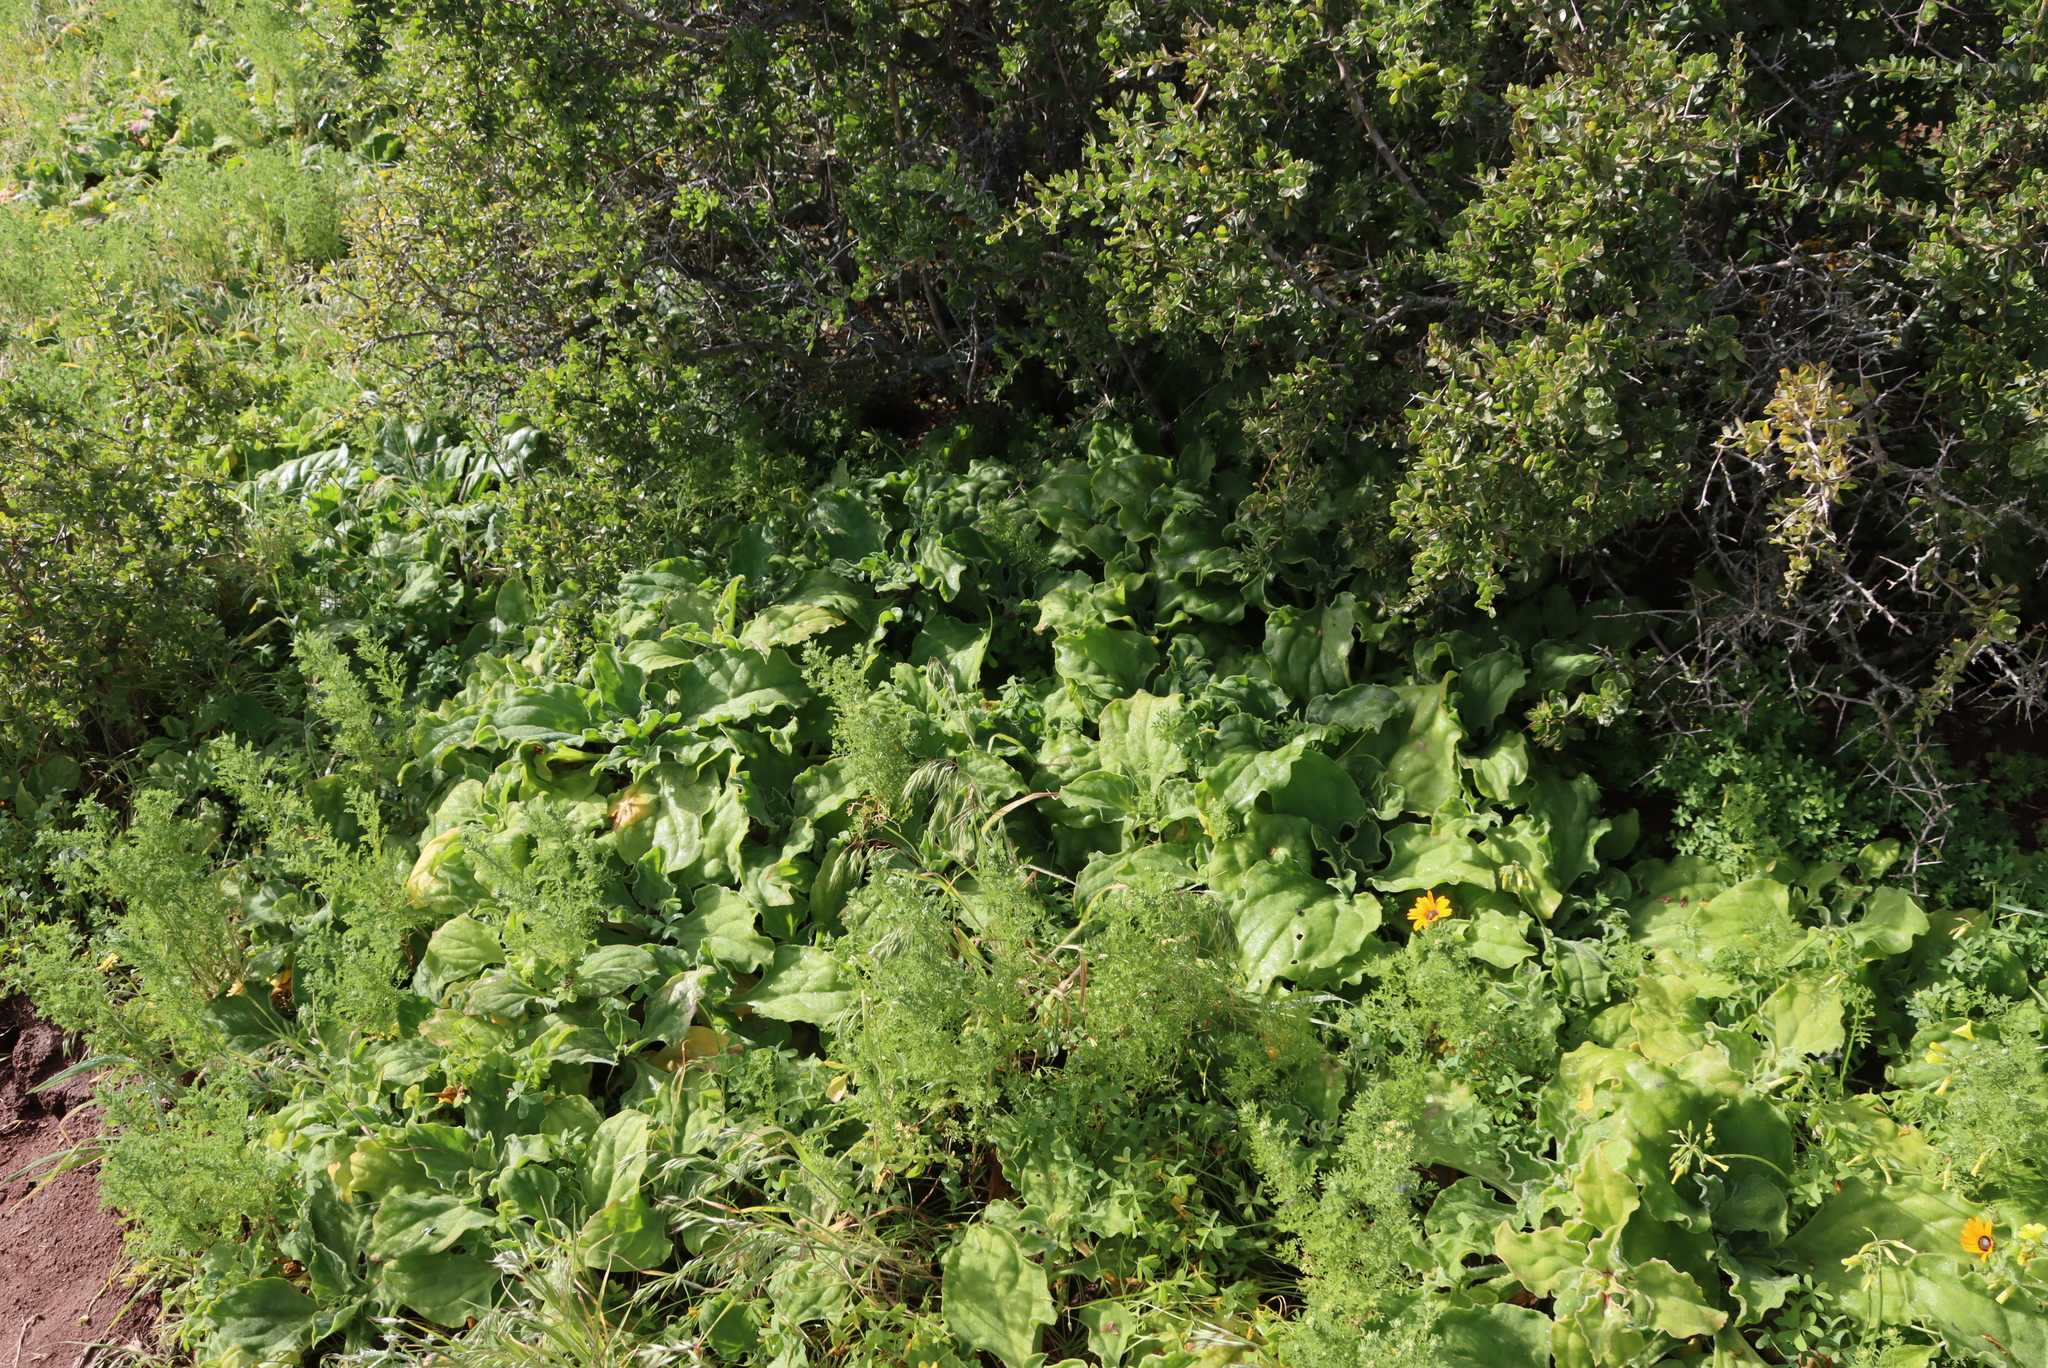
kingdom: Plantae
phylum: Tracheophyta
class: Magnoliopsida
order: Caryophyllales
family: Aizoaceae
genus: Mesembryanthemum
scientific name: Mesembryanthemum crystallinum
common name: Common iceplant
